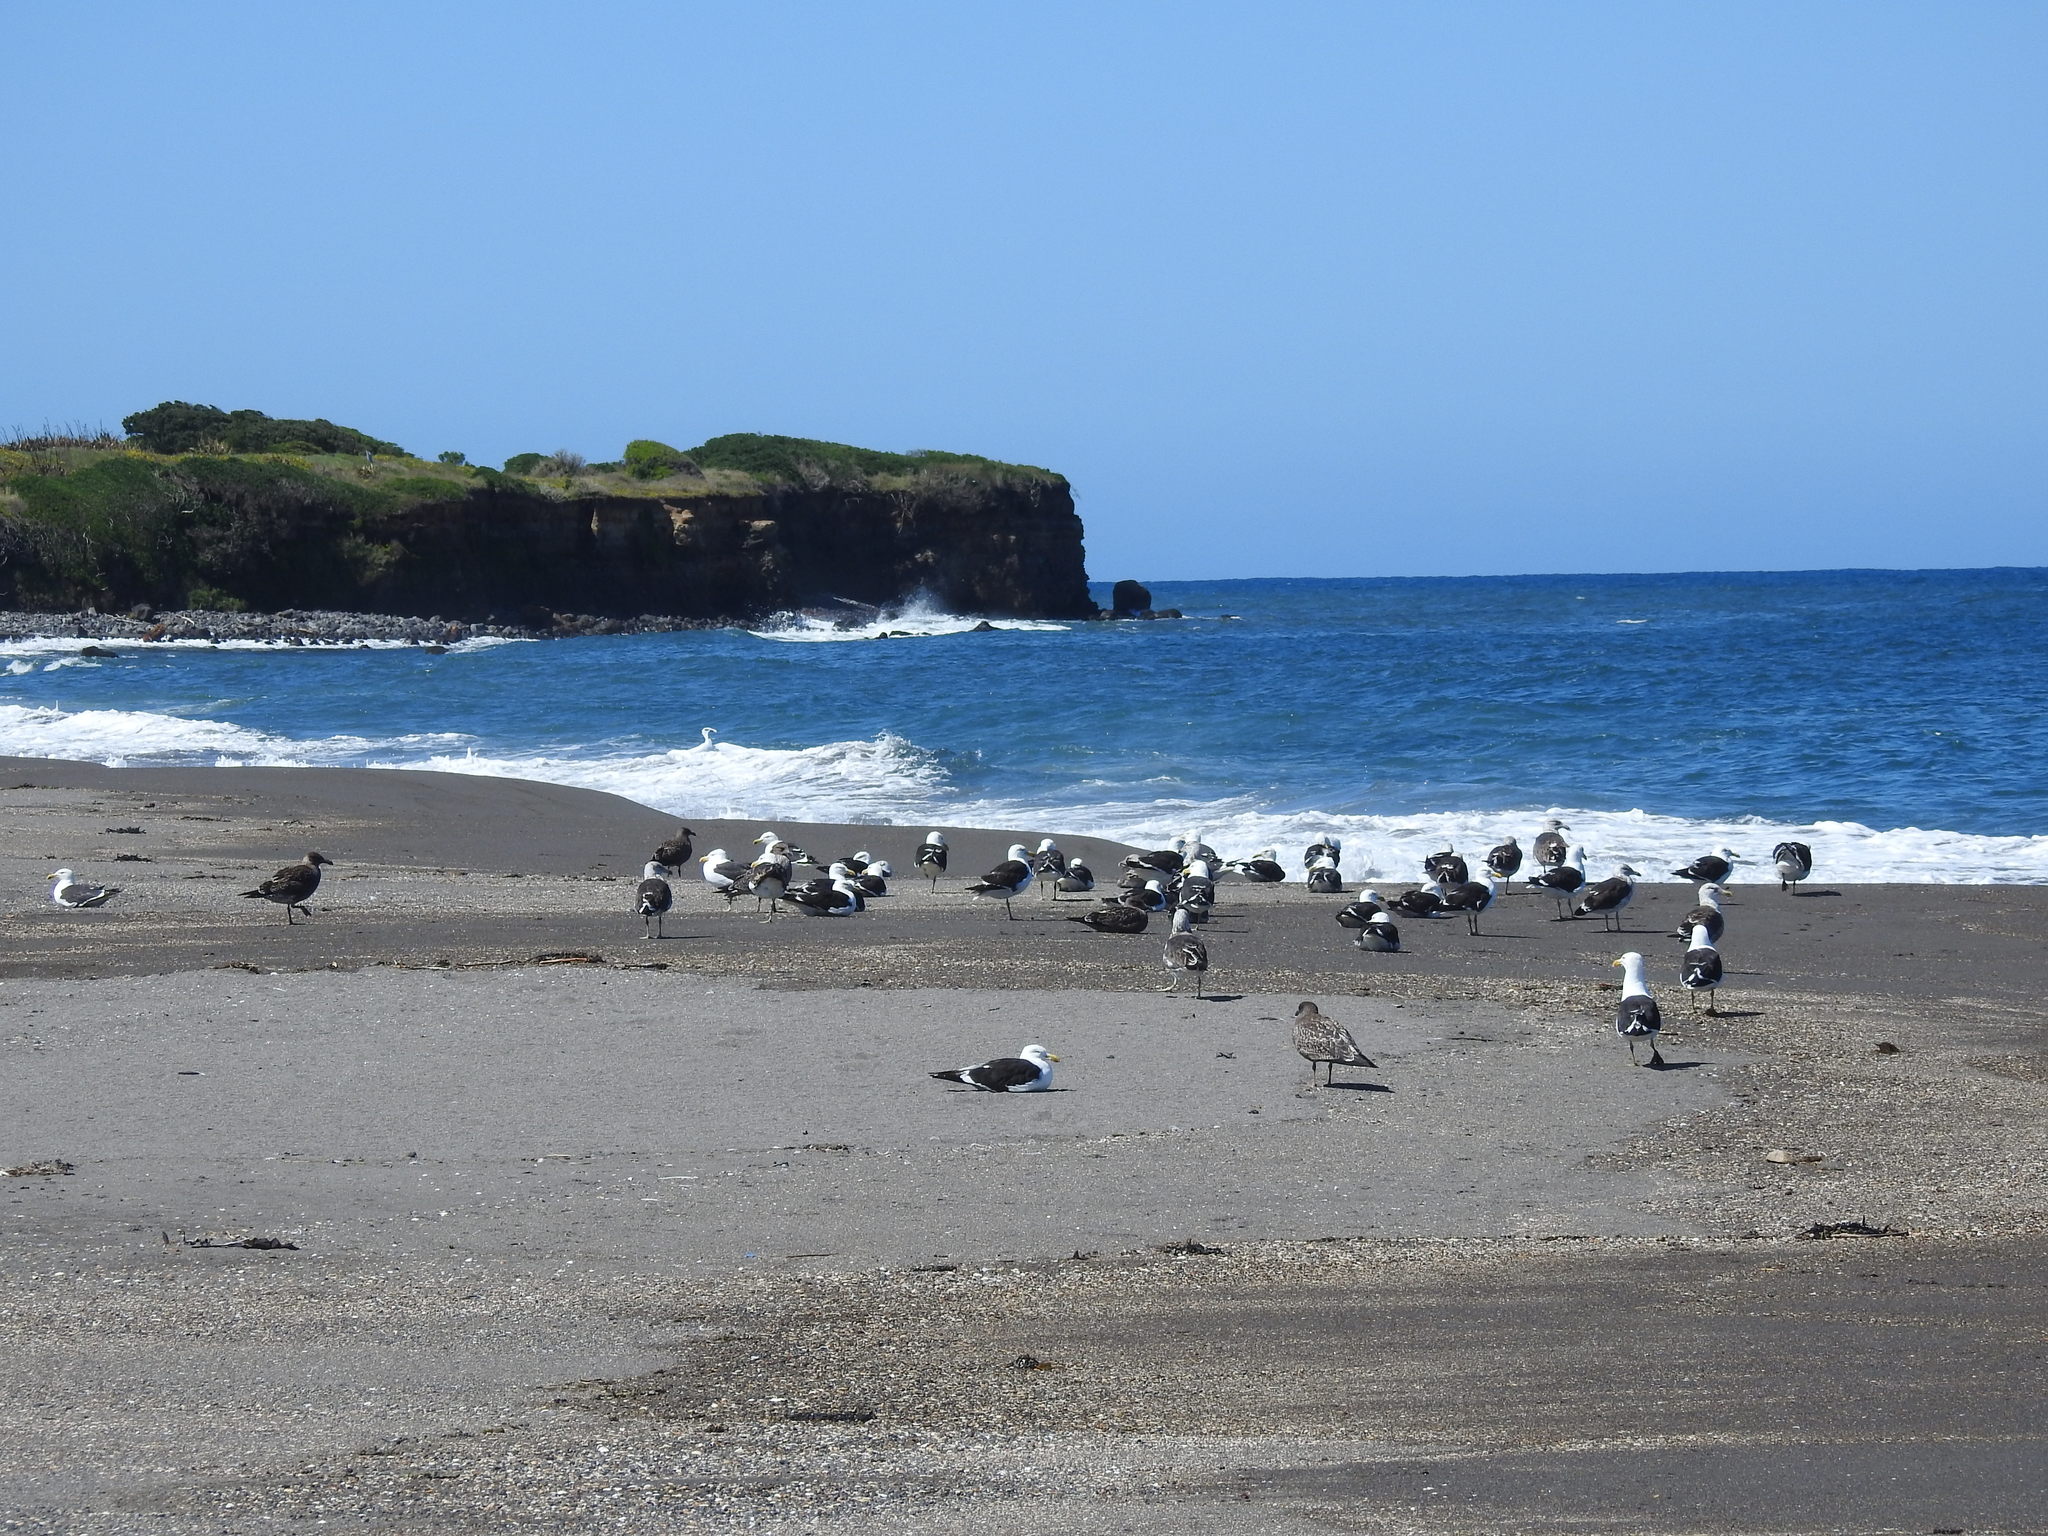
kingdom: Animalia
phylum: Chordata
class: Aves
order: Charadriiformes
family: Laridae
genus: Larus
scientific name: Larus dominicanus
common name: Kelp gull
